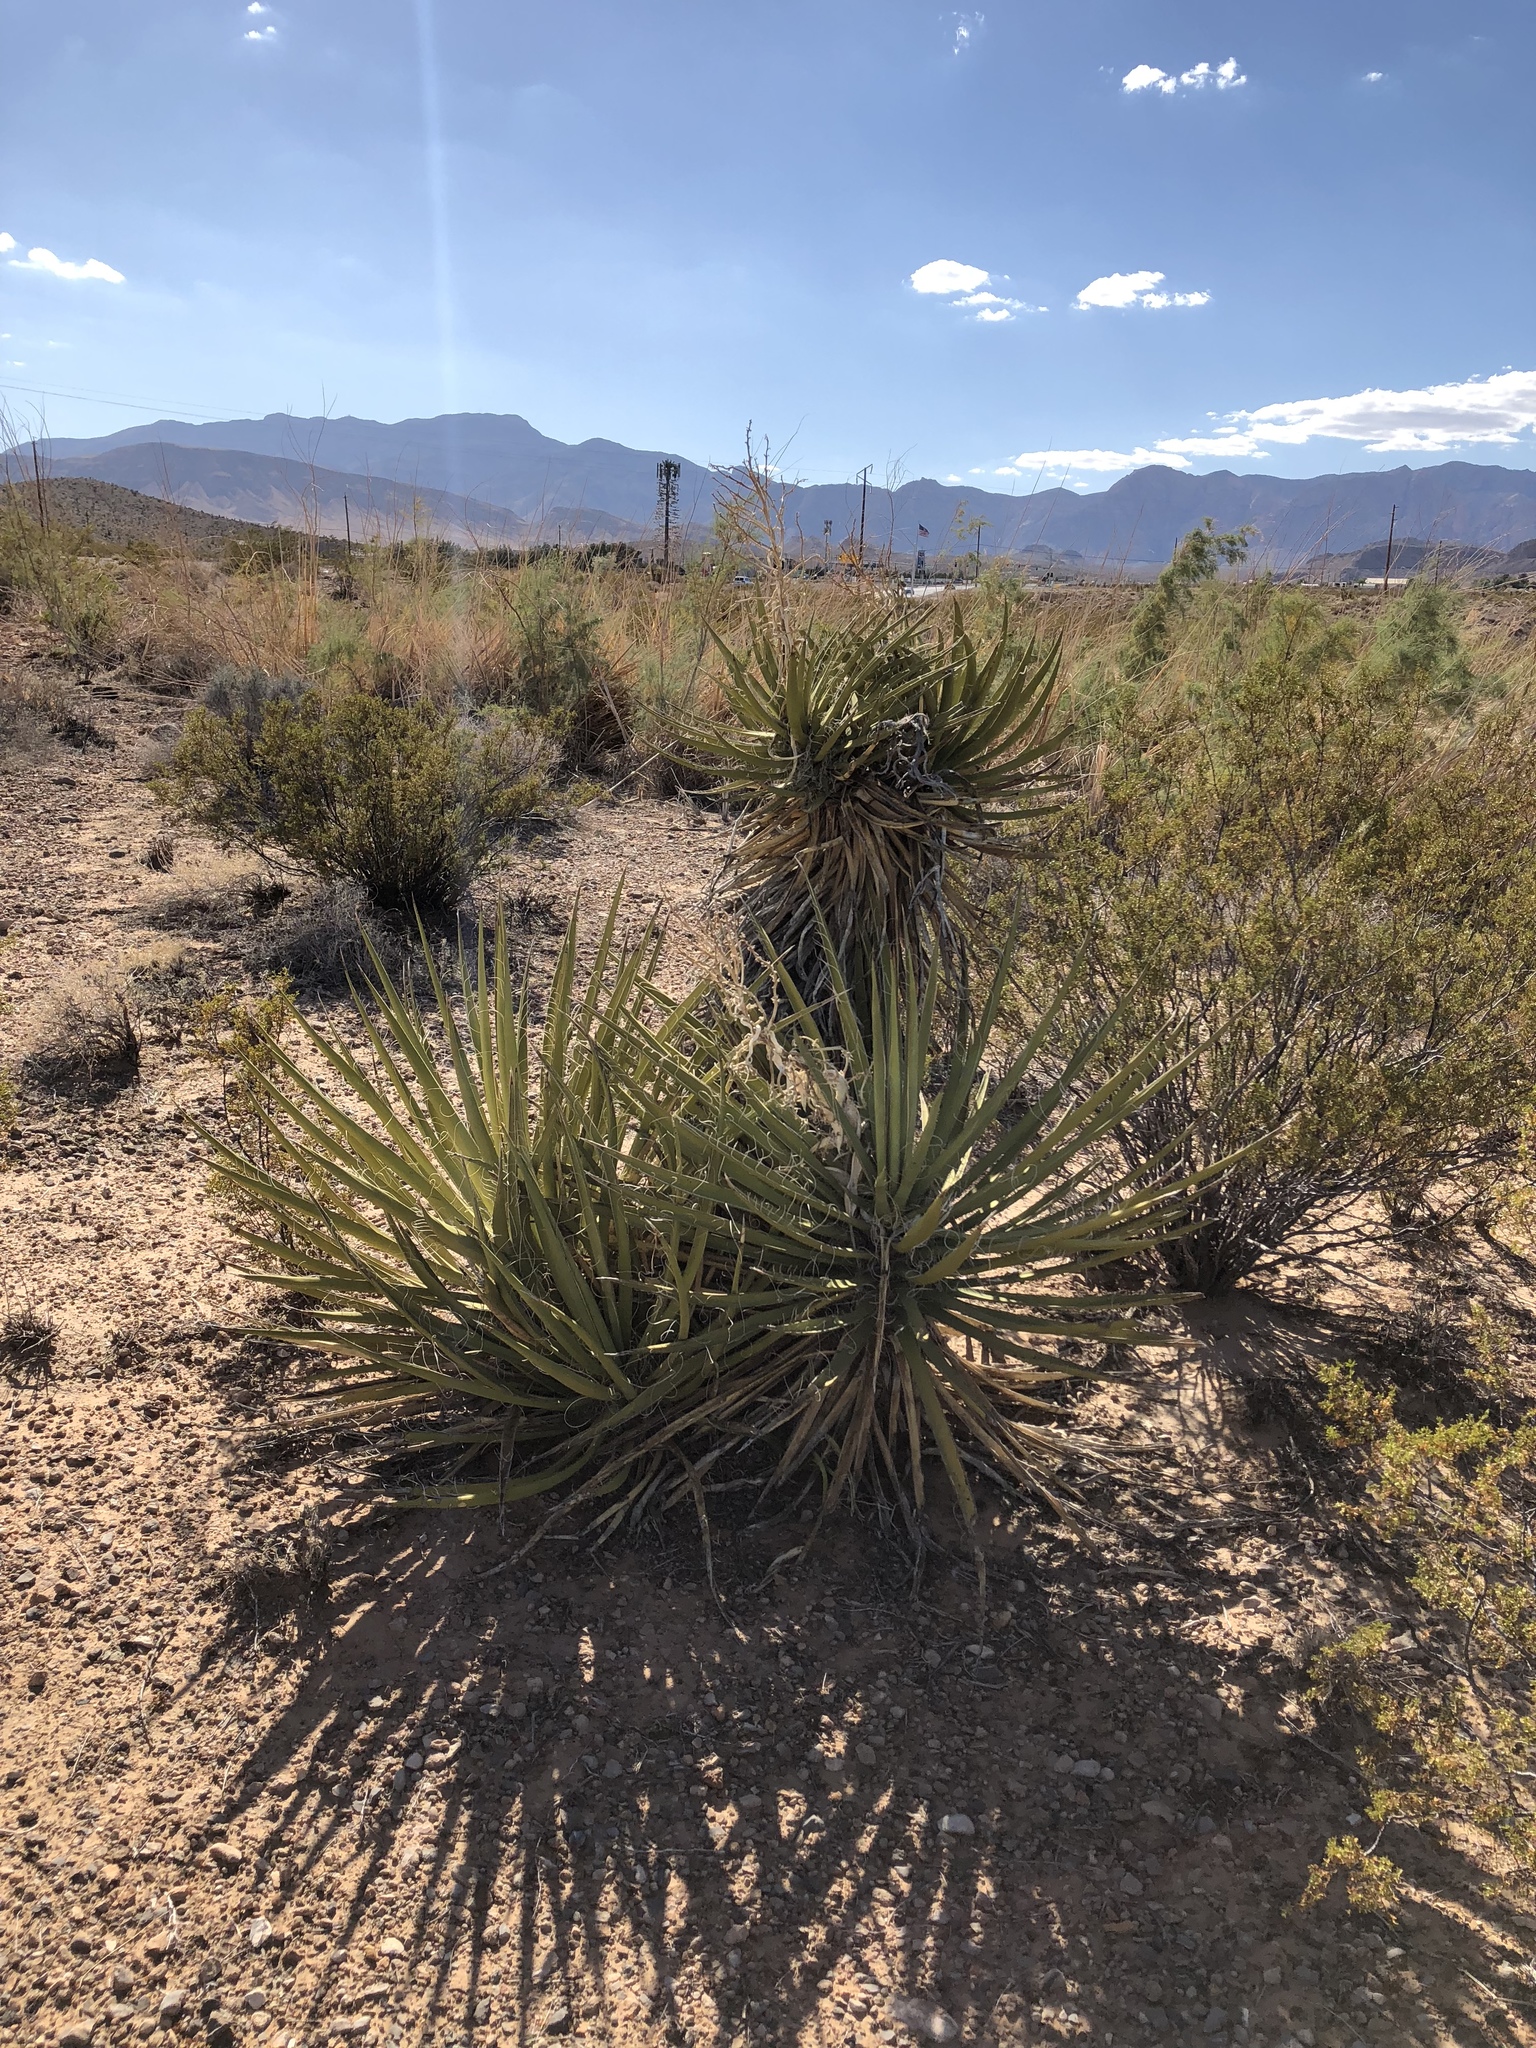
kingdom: Plantae
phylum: Tracheophyta
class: Liliopsida
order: Asparagales
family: Asparagaceae
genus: Yucca
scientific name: Yucca schidigera
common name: Mojave yucca
